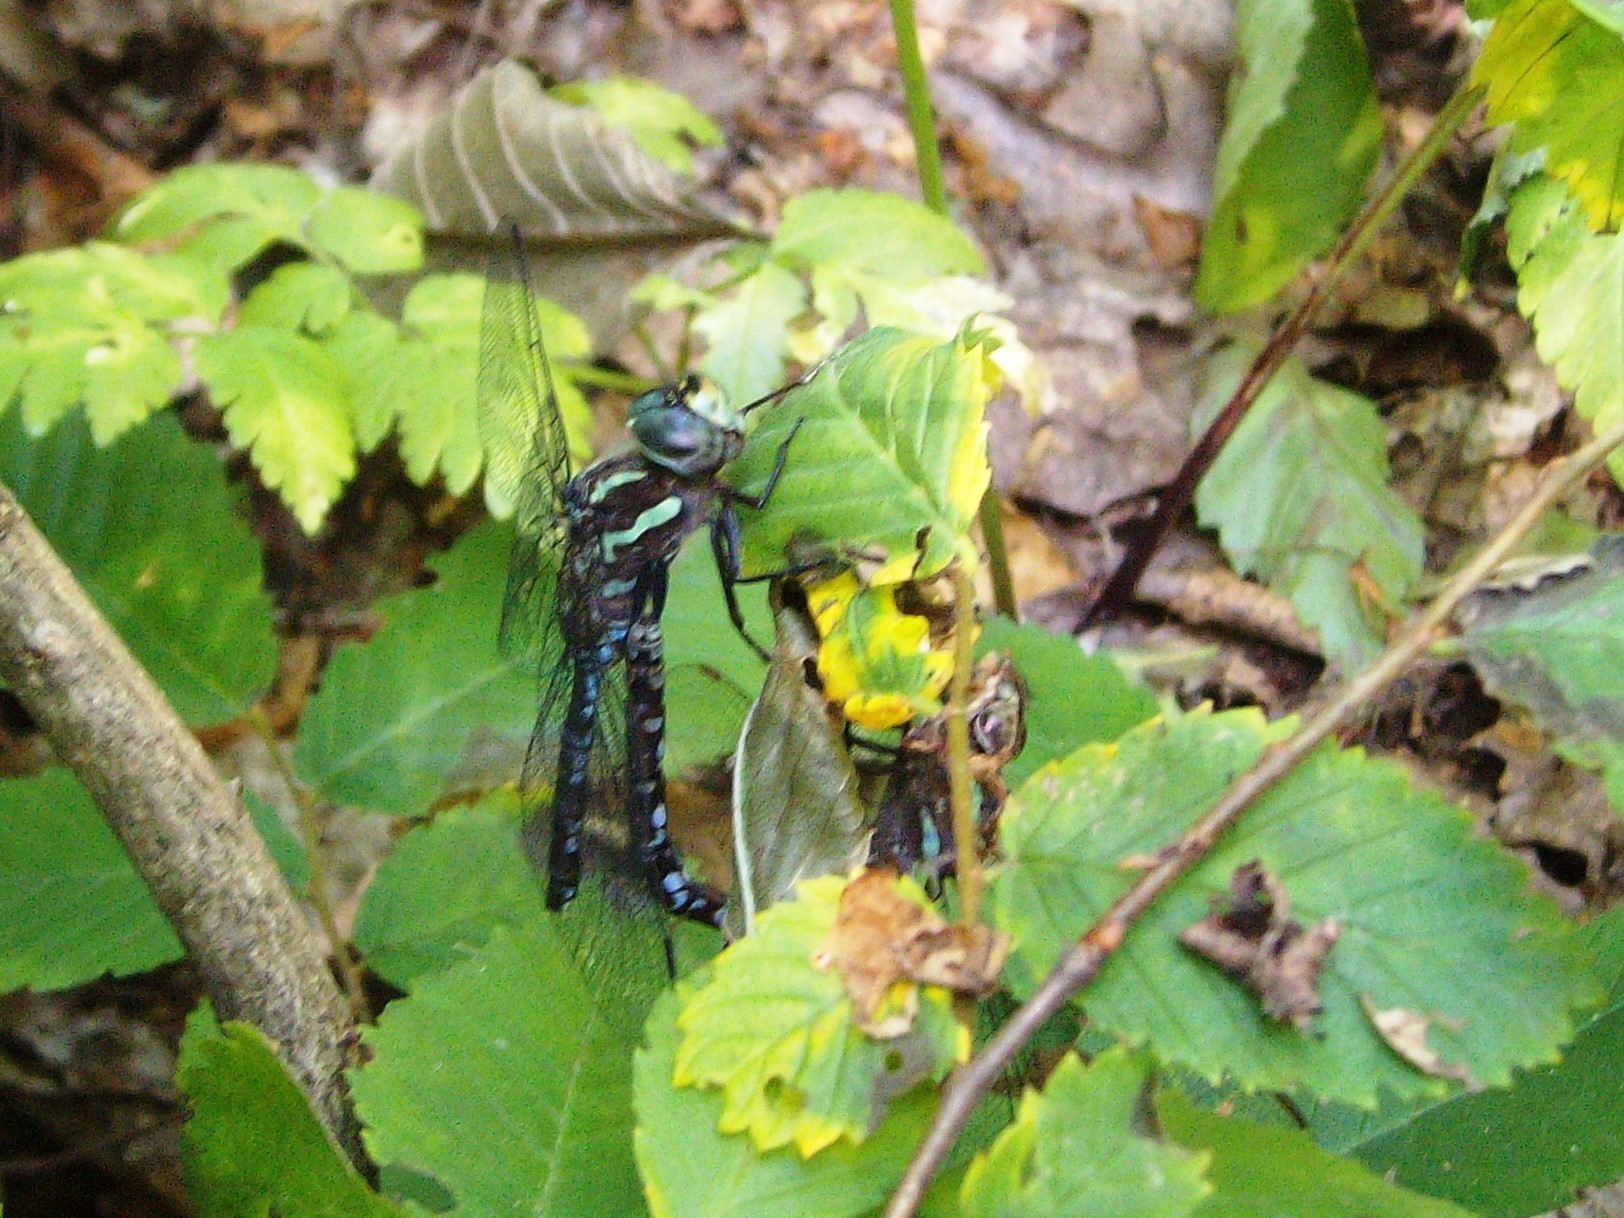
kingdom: Animalia
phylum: Arthropoda
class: Insecta
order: Odonata
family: Aeshnidae
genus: Aeshna
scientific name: Aeshna verticalis
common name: Green-striped darner
